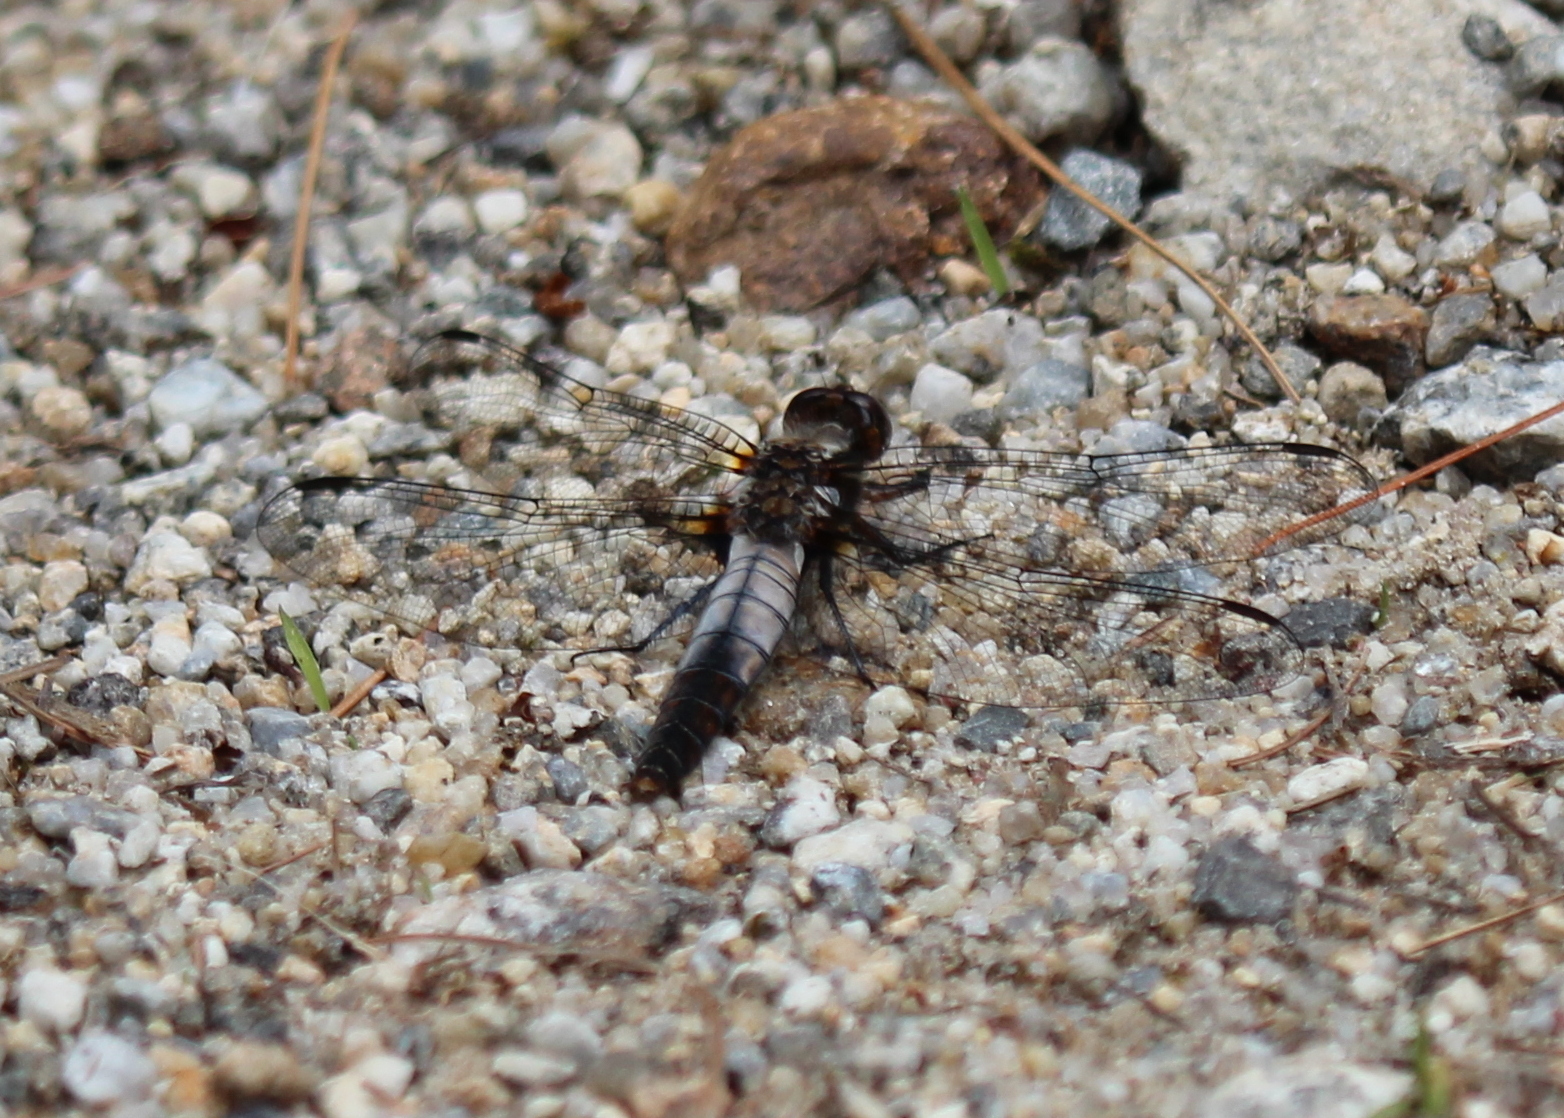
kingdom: Animalia
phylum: Arthropoda
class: Insecta
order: Odonata
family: Libellulidae
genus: Ladona
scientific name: Ladona julia
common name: Chalk-fronted corporal
